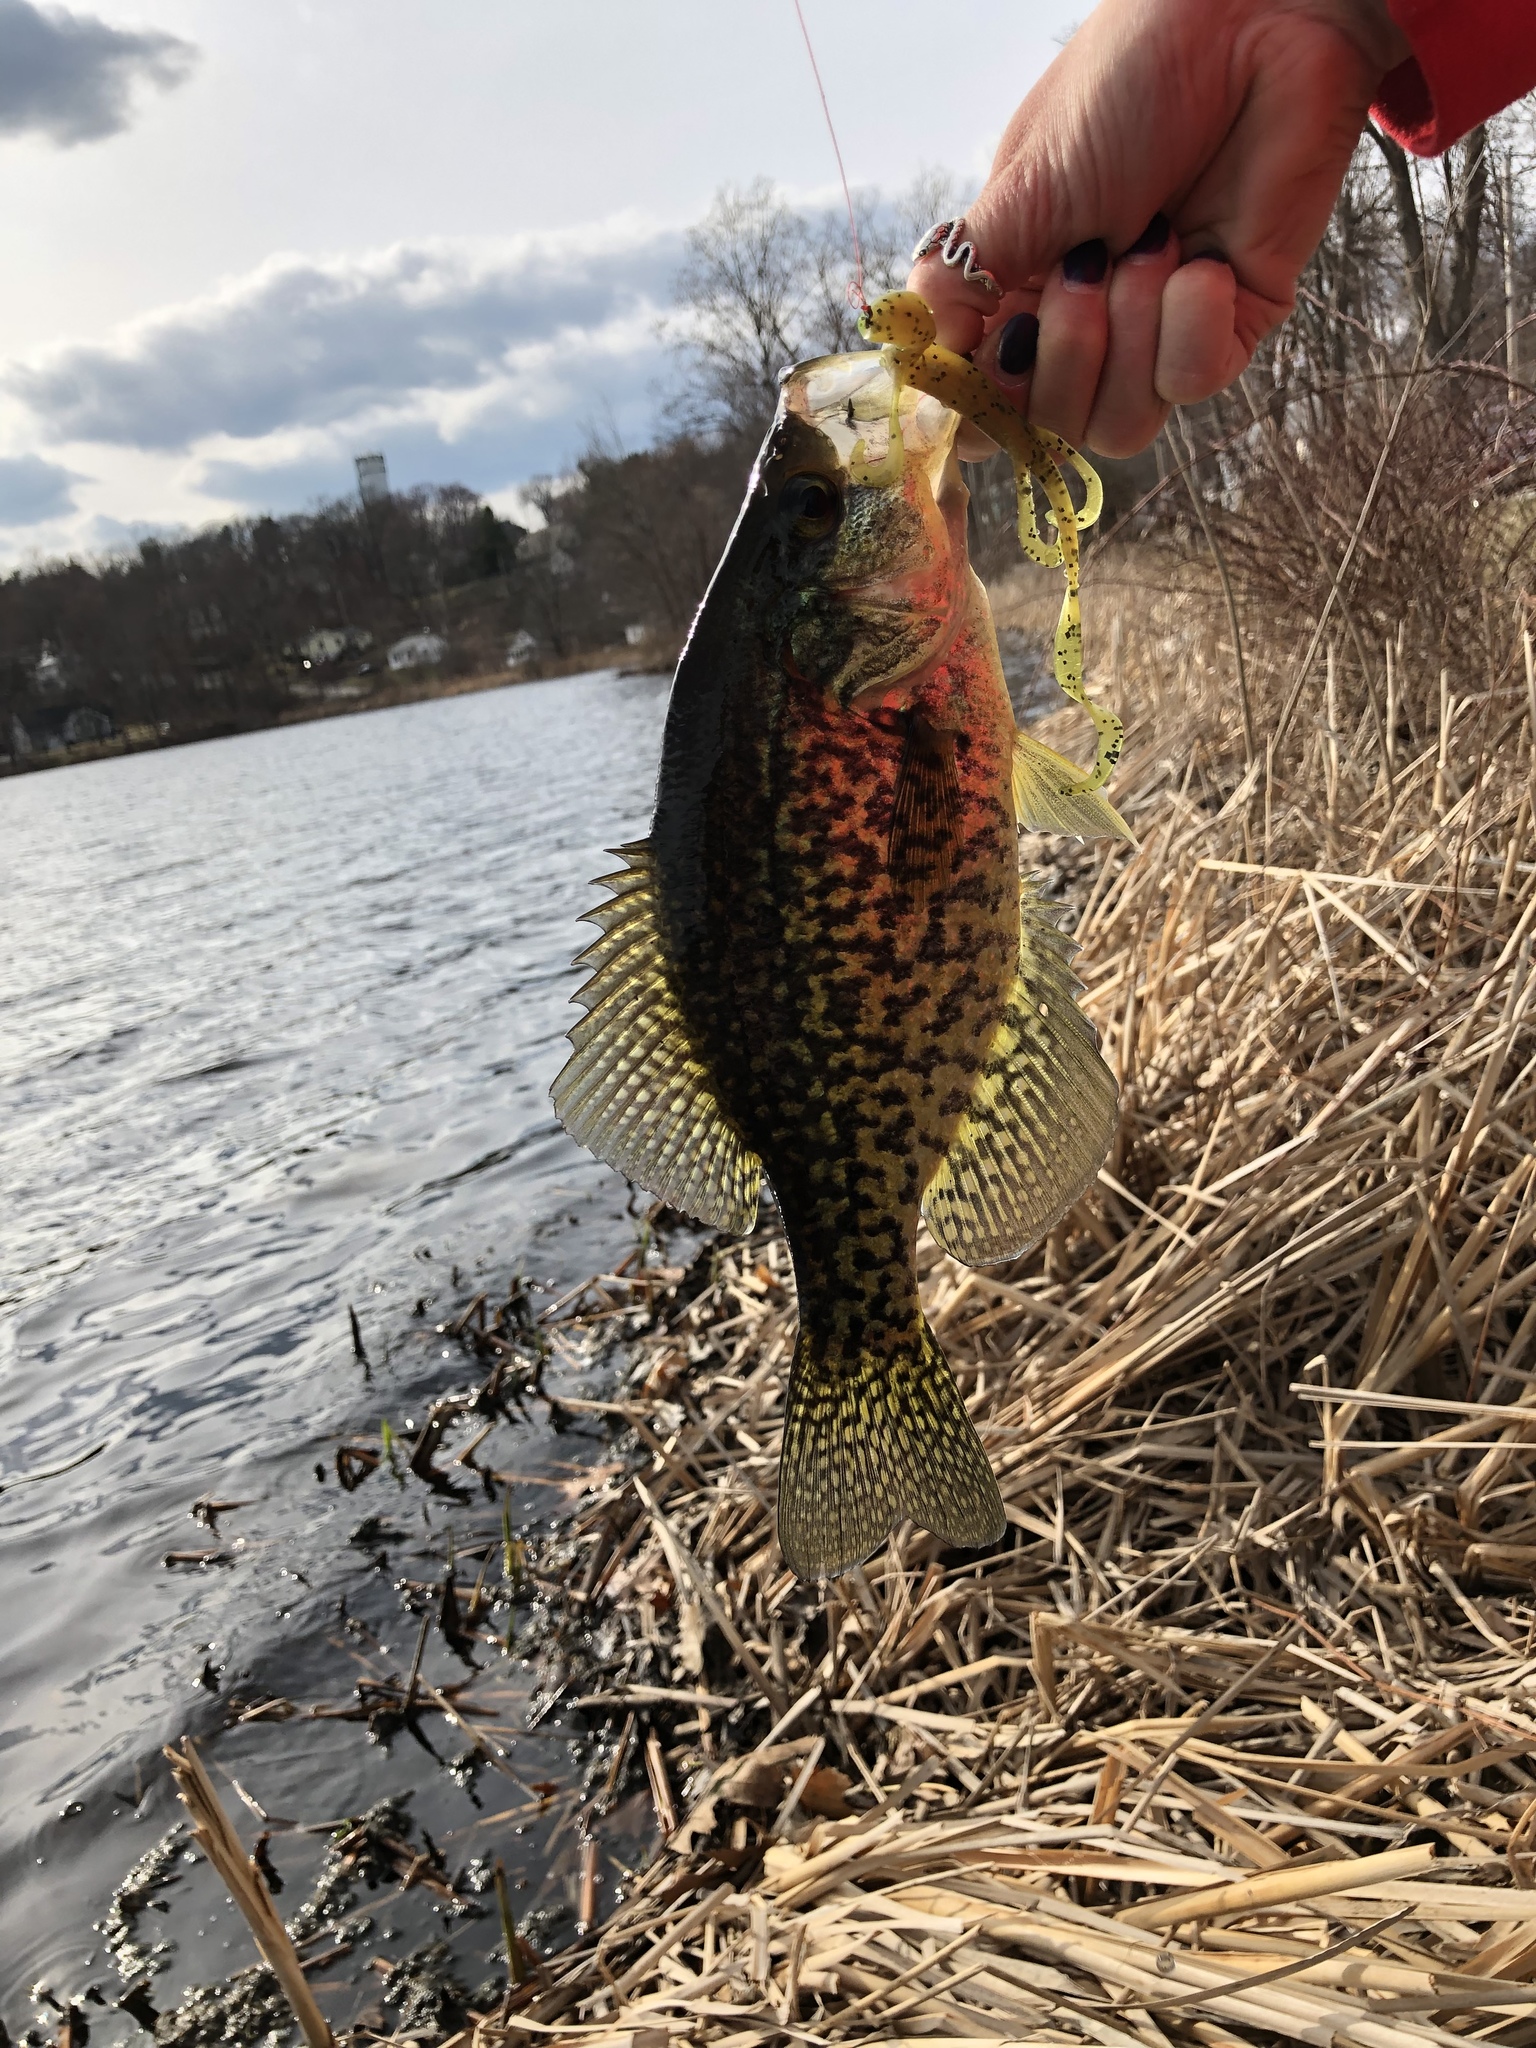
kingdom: Animalia
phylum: Chordata
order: Perciformes
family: Centrarchidae
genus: Pomoxis
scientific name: Pomoxis nigromaculatus
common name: Black crappie
